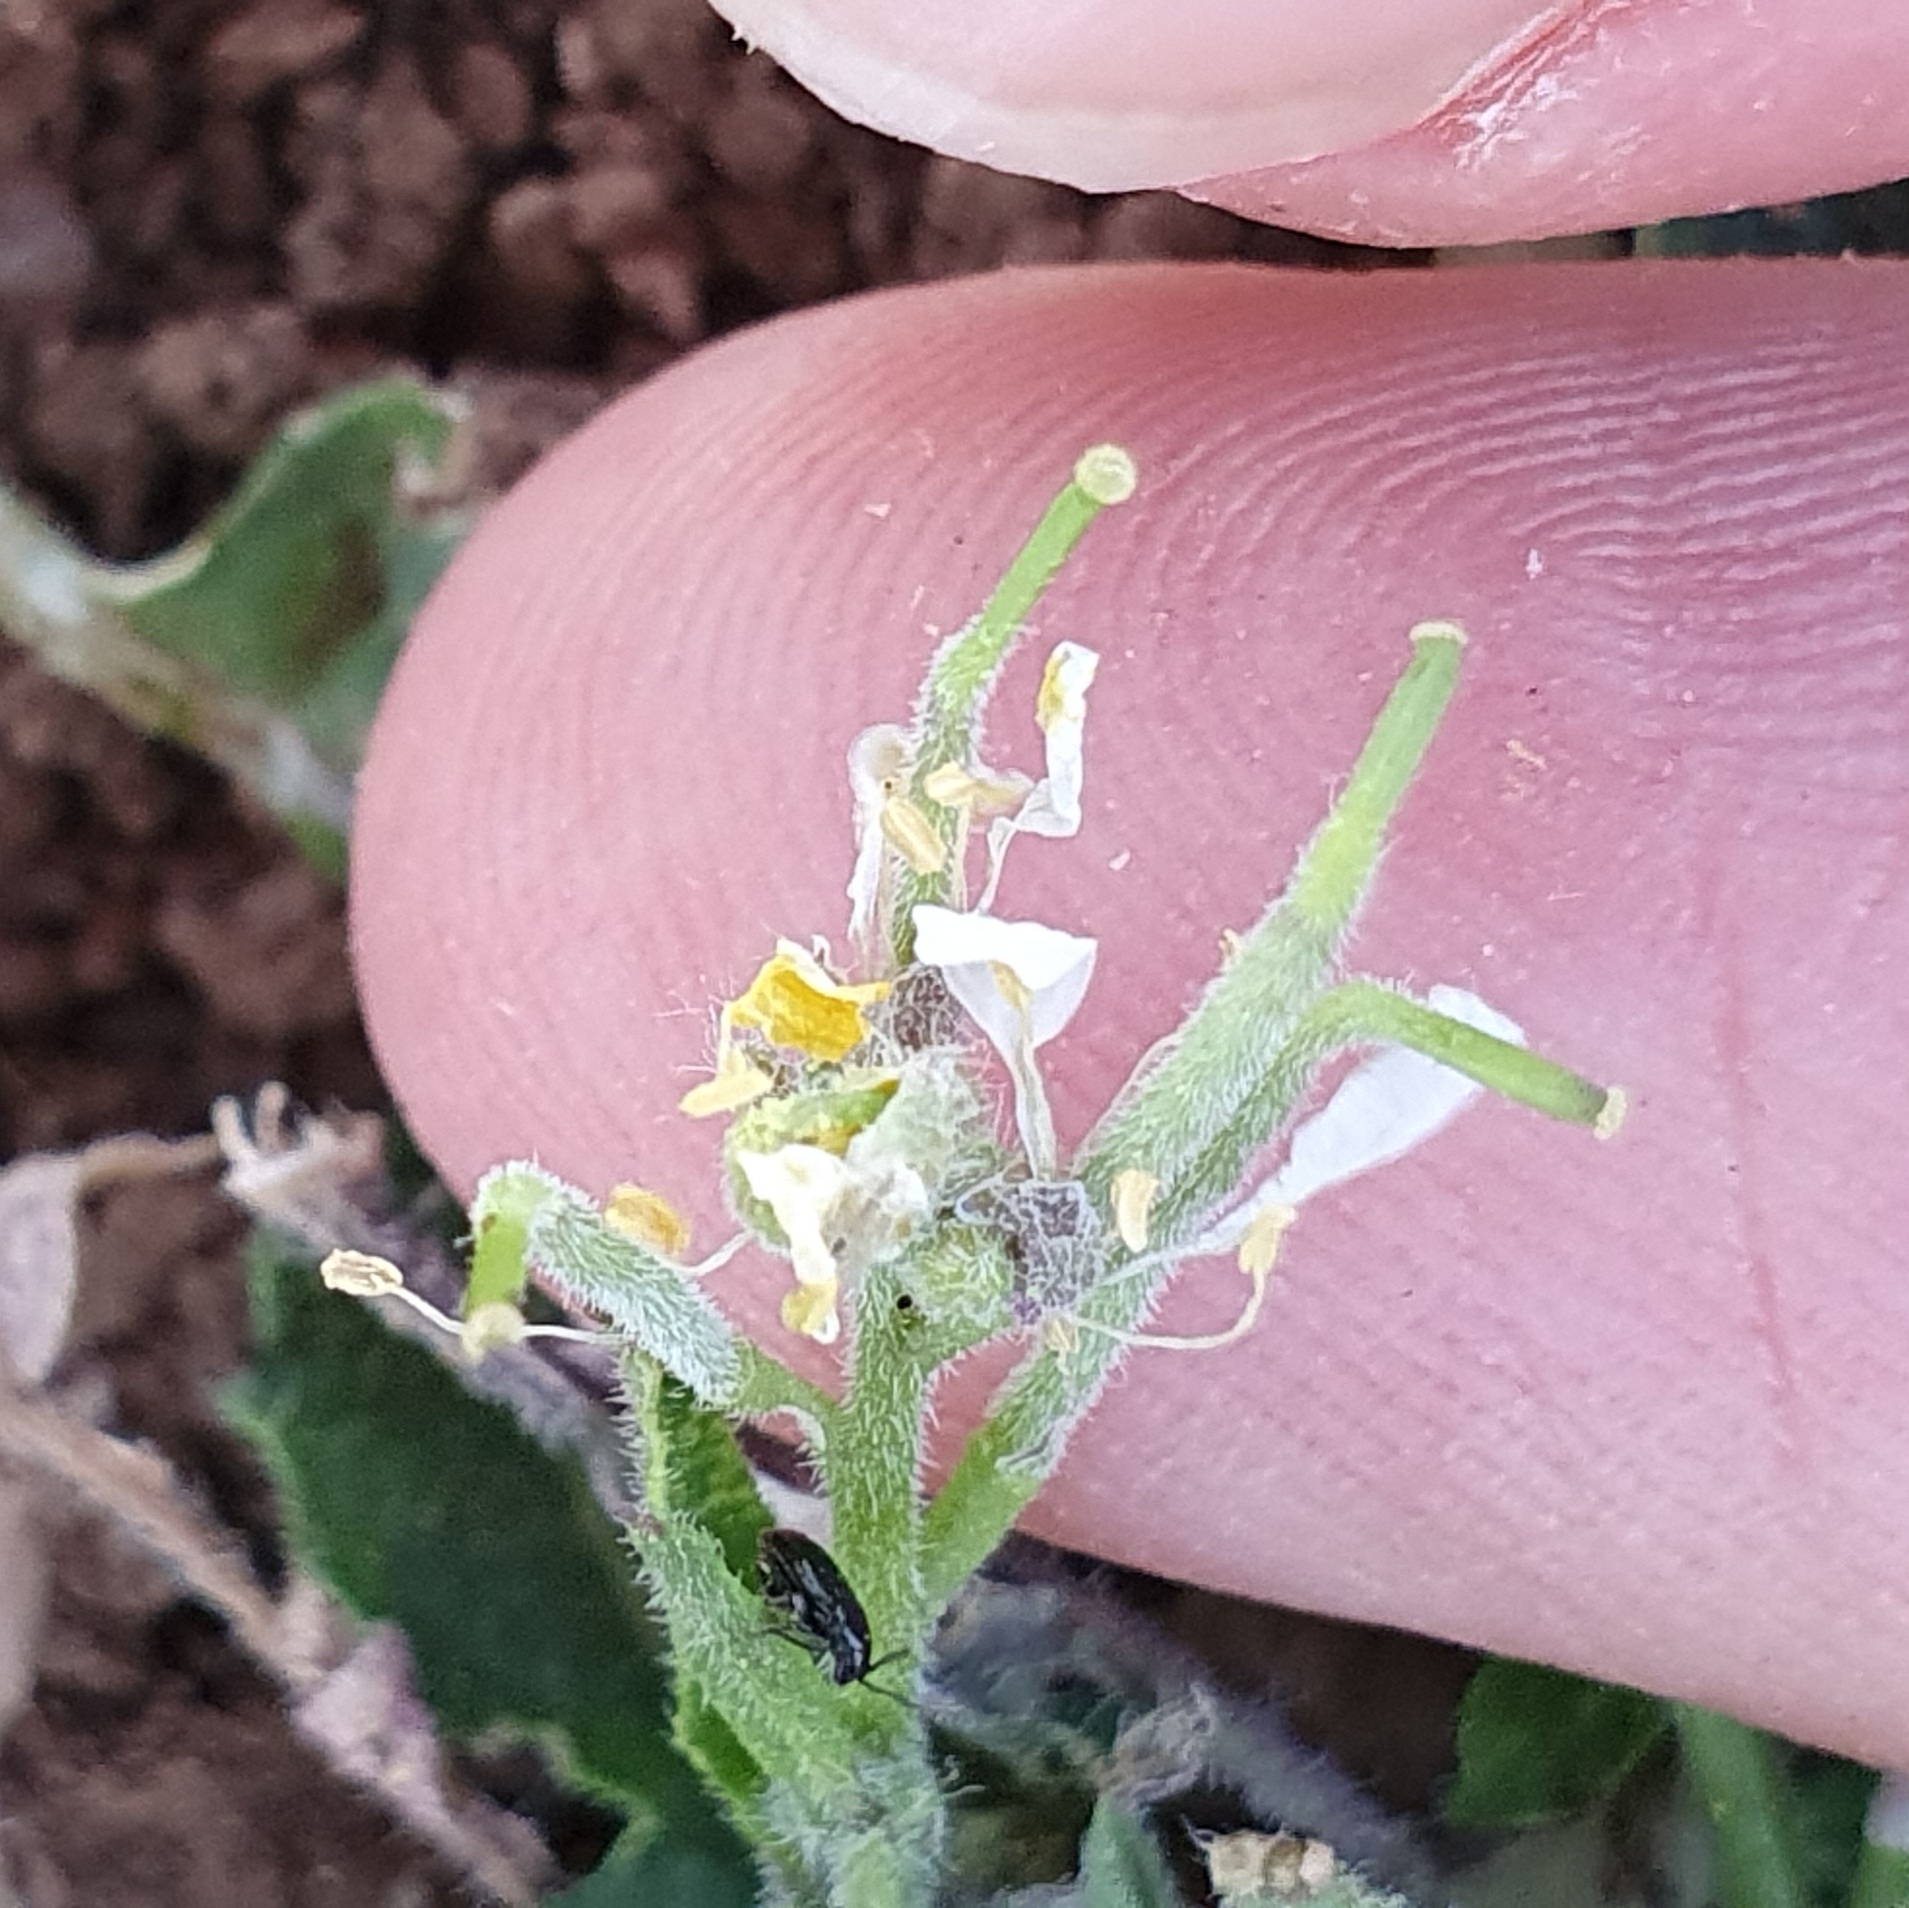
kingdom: Plantae
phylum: Tracheophyta
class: Magnoliopsida
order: Brassicales
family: Brassicaceae
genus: Hirschfeldia
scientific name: Hirschfeldia incana
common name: Hoary mustard
